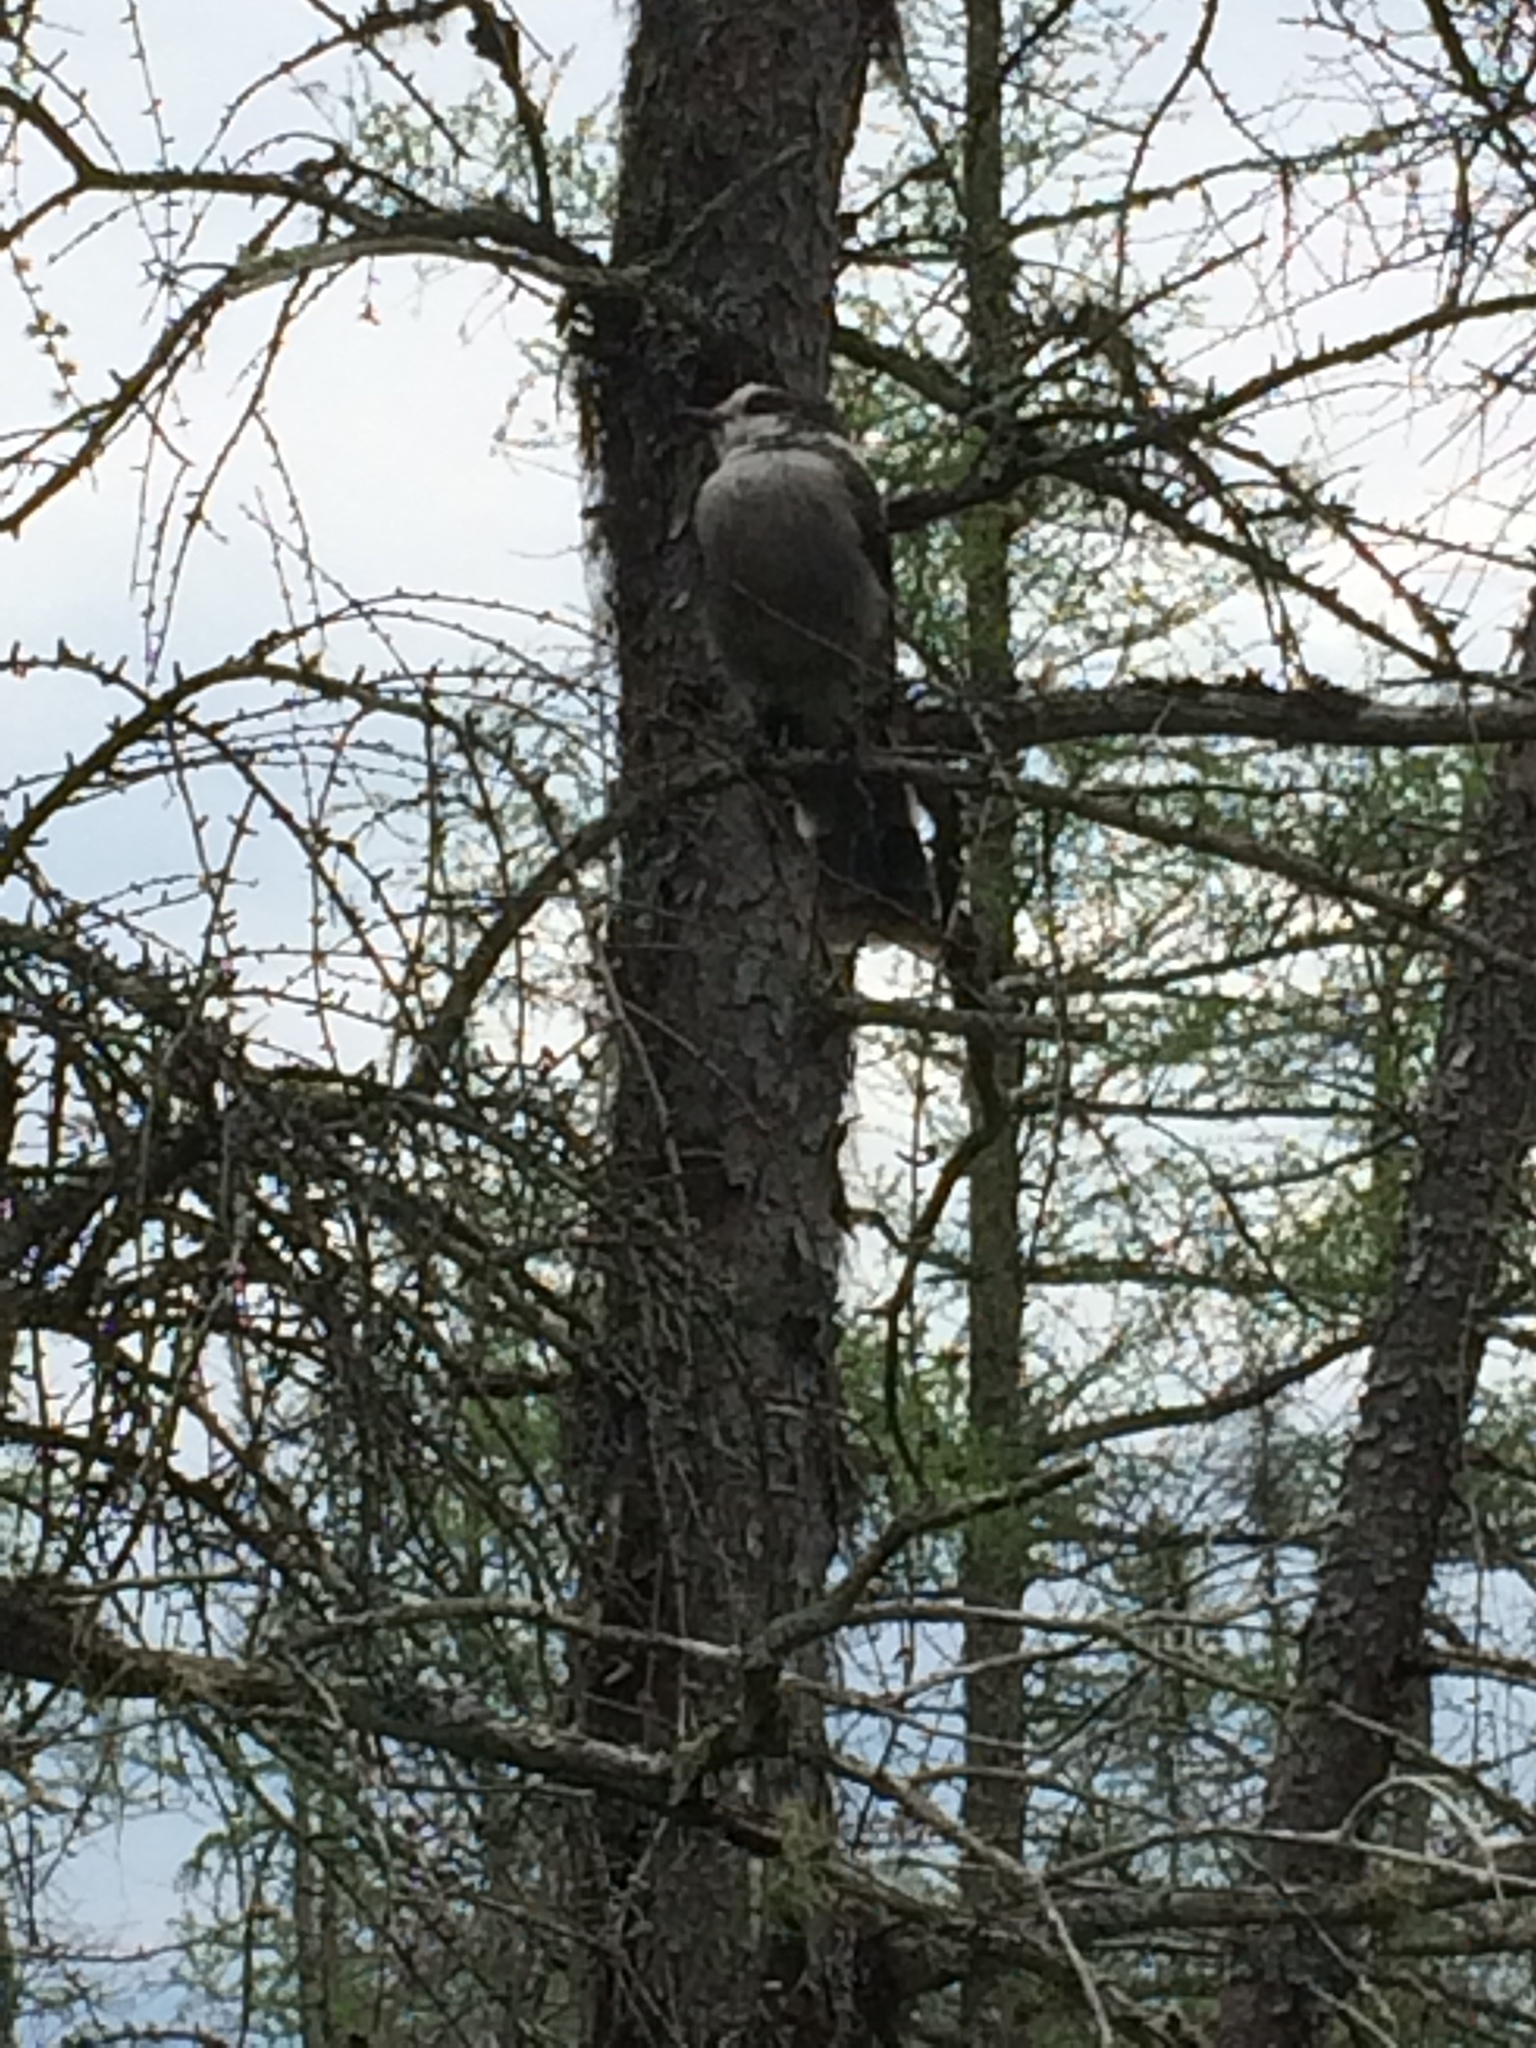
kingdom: Animalia
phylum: Chordata
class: Aves
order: Passeriformes
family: Corvidae
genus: Perisoreus
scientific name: Perisoreus canadensis
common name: Gray jay
